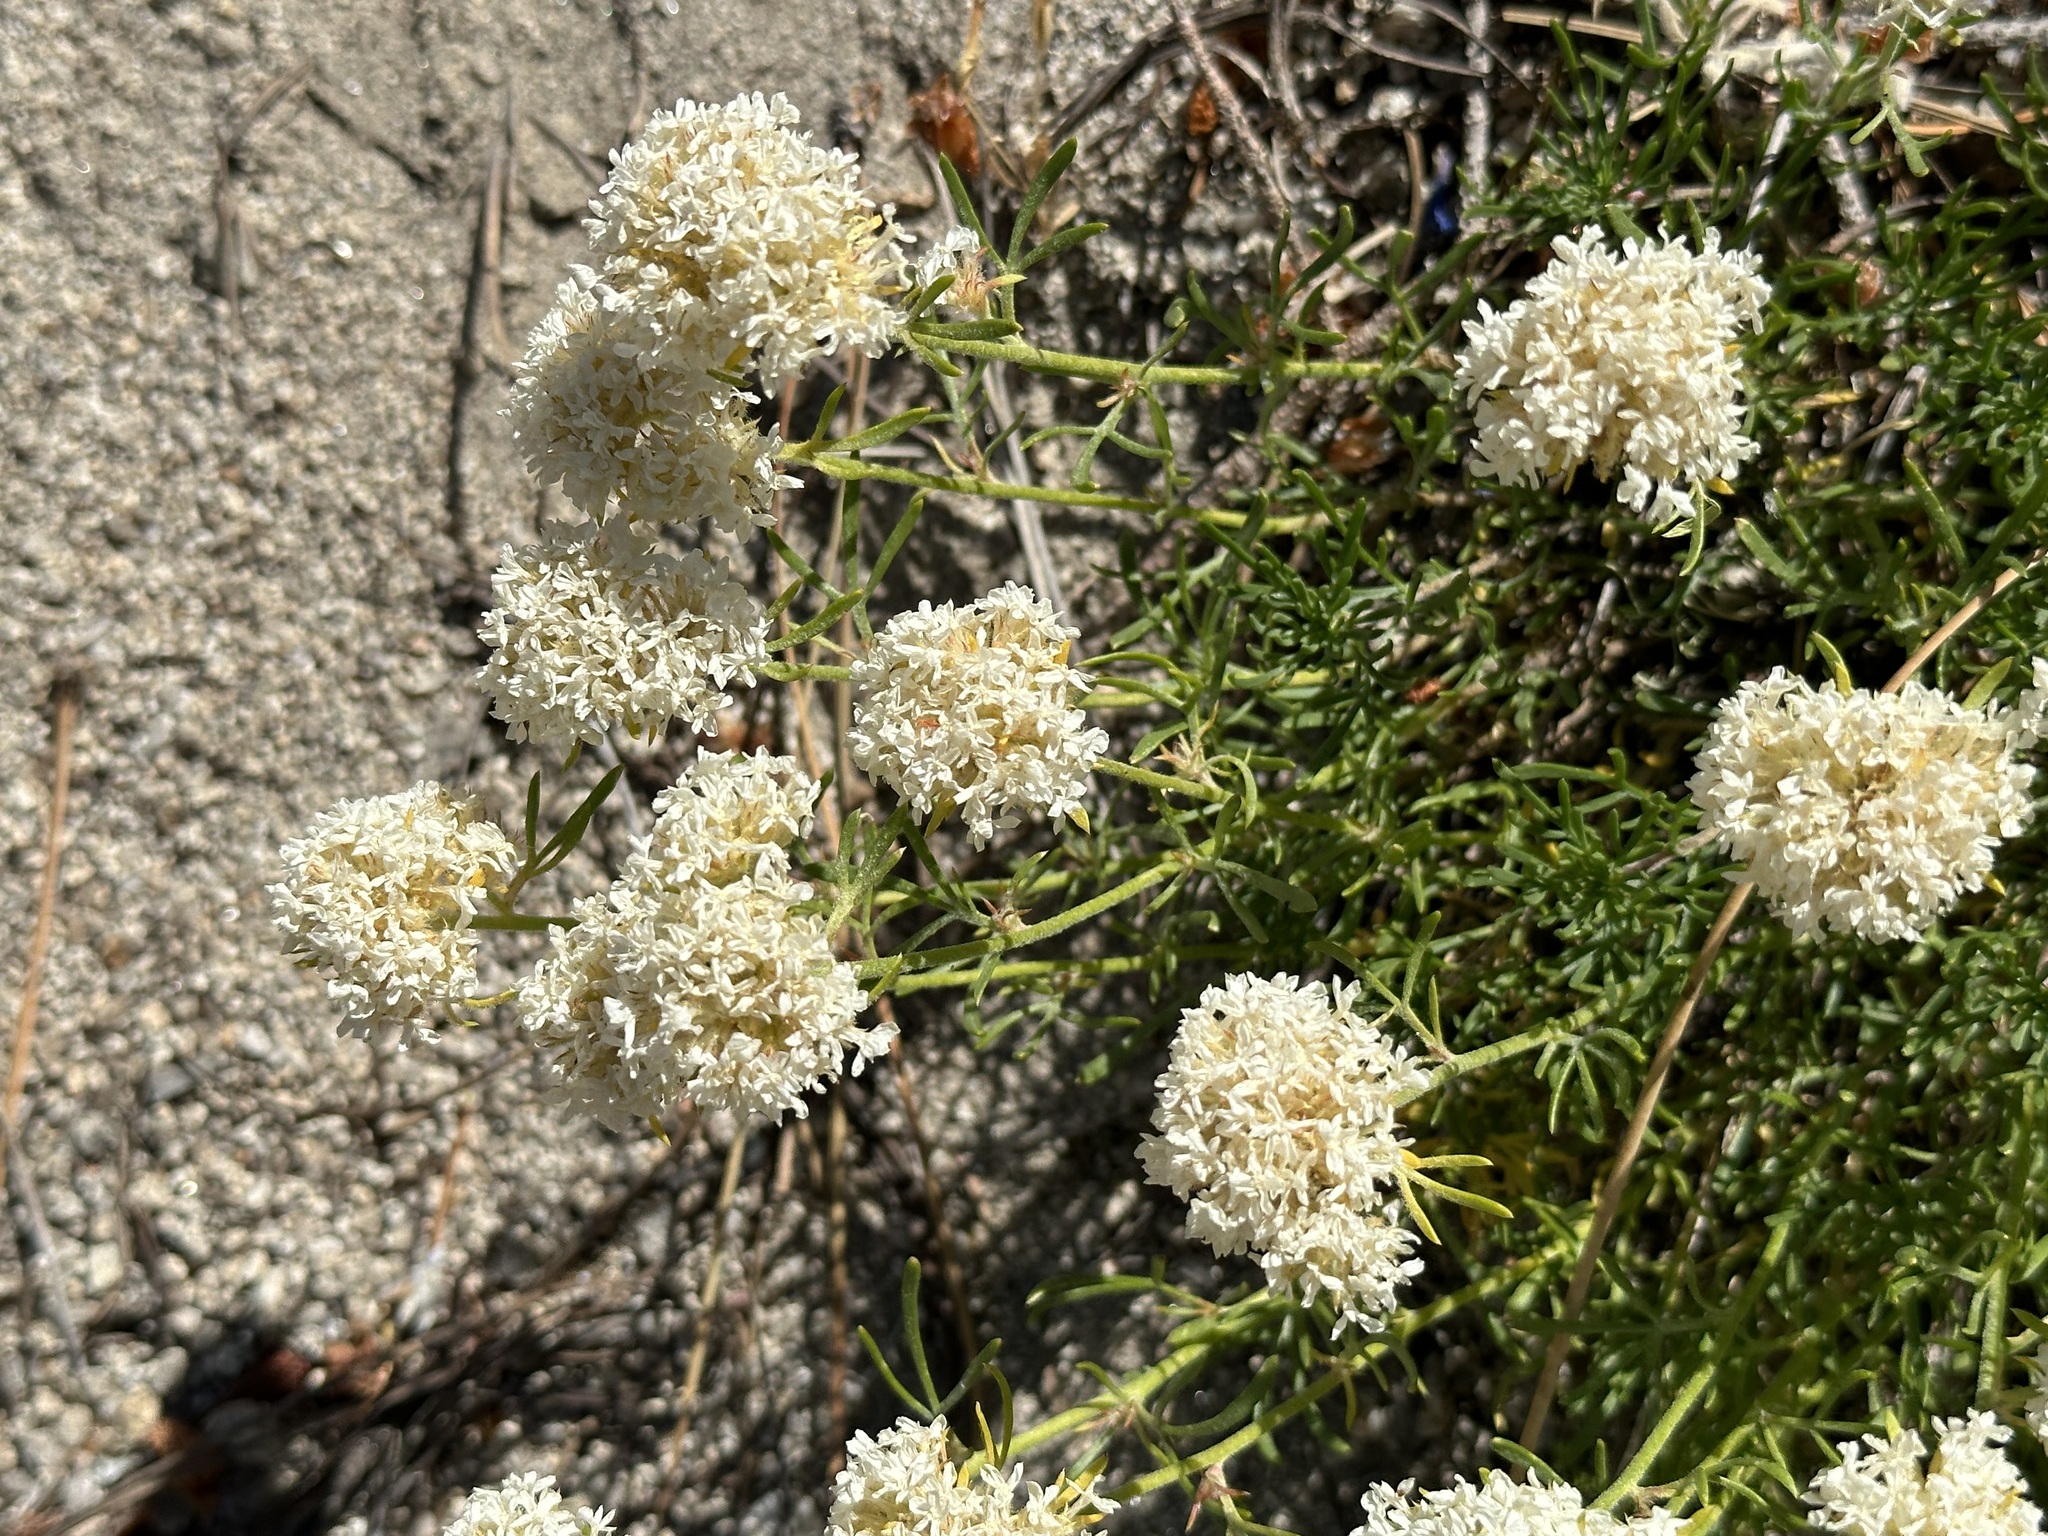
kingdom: Plantae
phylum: Tracheophyta
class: Magnoliopsida
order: Ericales
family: Polemoniaceae
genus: Ipomopsis
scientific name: Ipomopsis congesta
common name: Ball-head gilia
